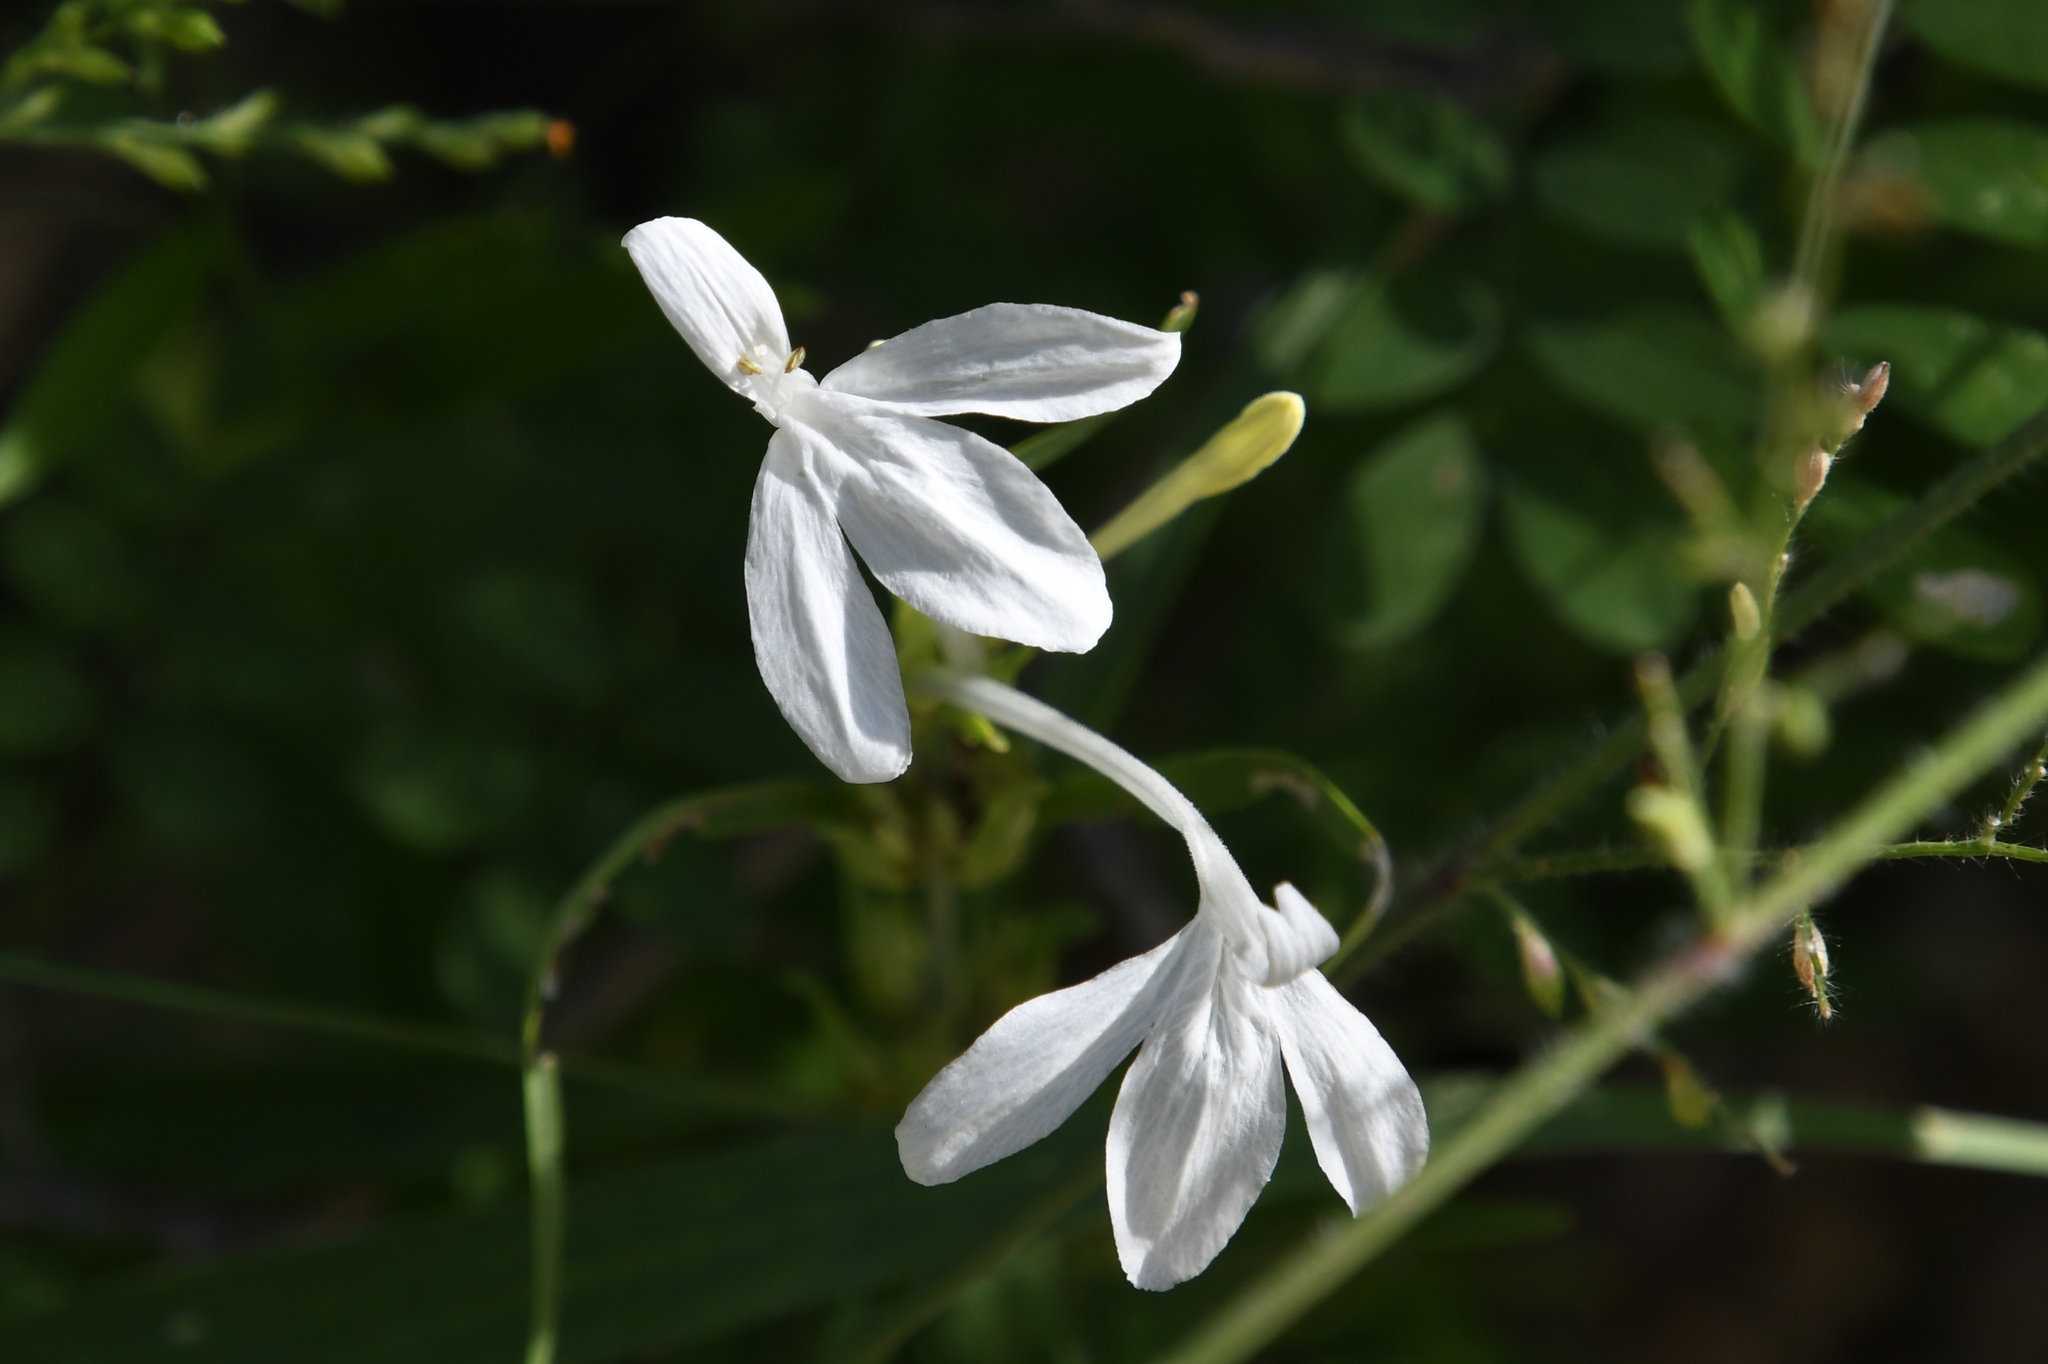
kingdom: Plantae
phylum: Tracheophyta
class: Magnoliopsida
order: Lamiales
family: Acanthaceae
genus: Justicia
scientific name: Justicia longii
